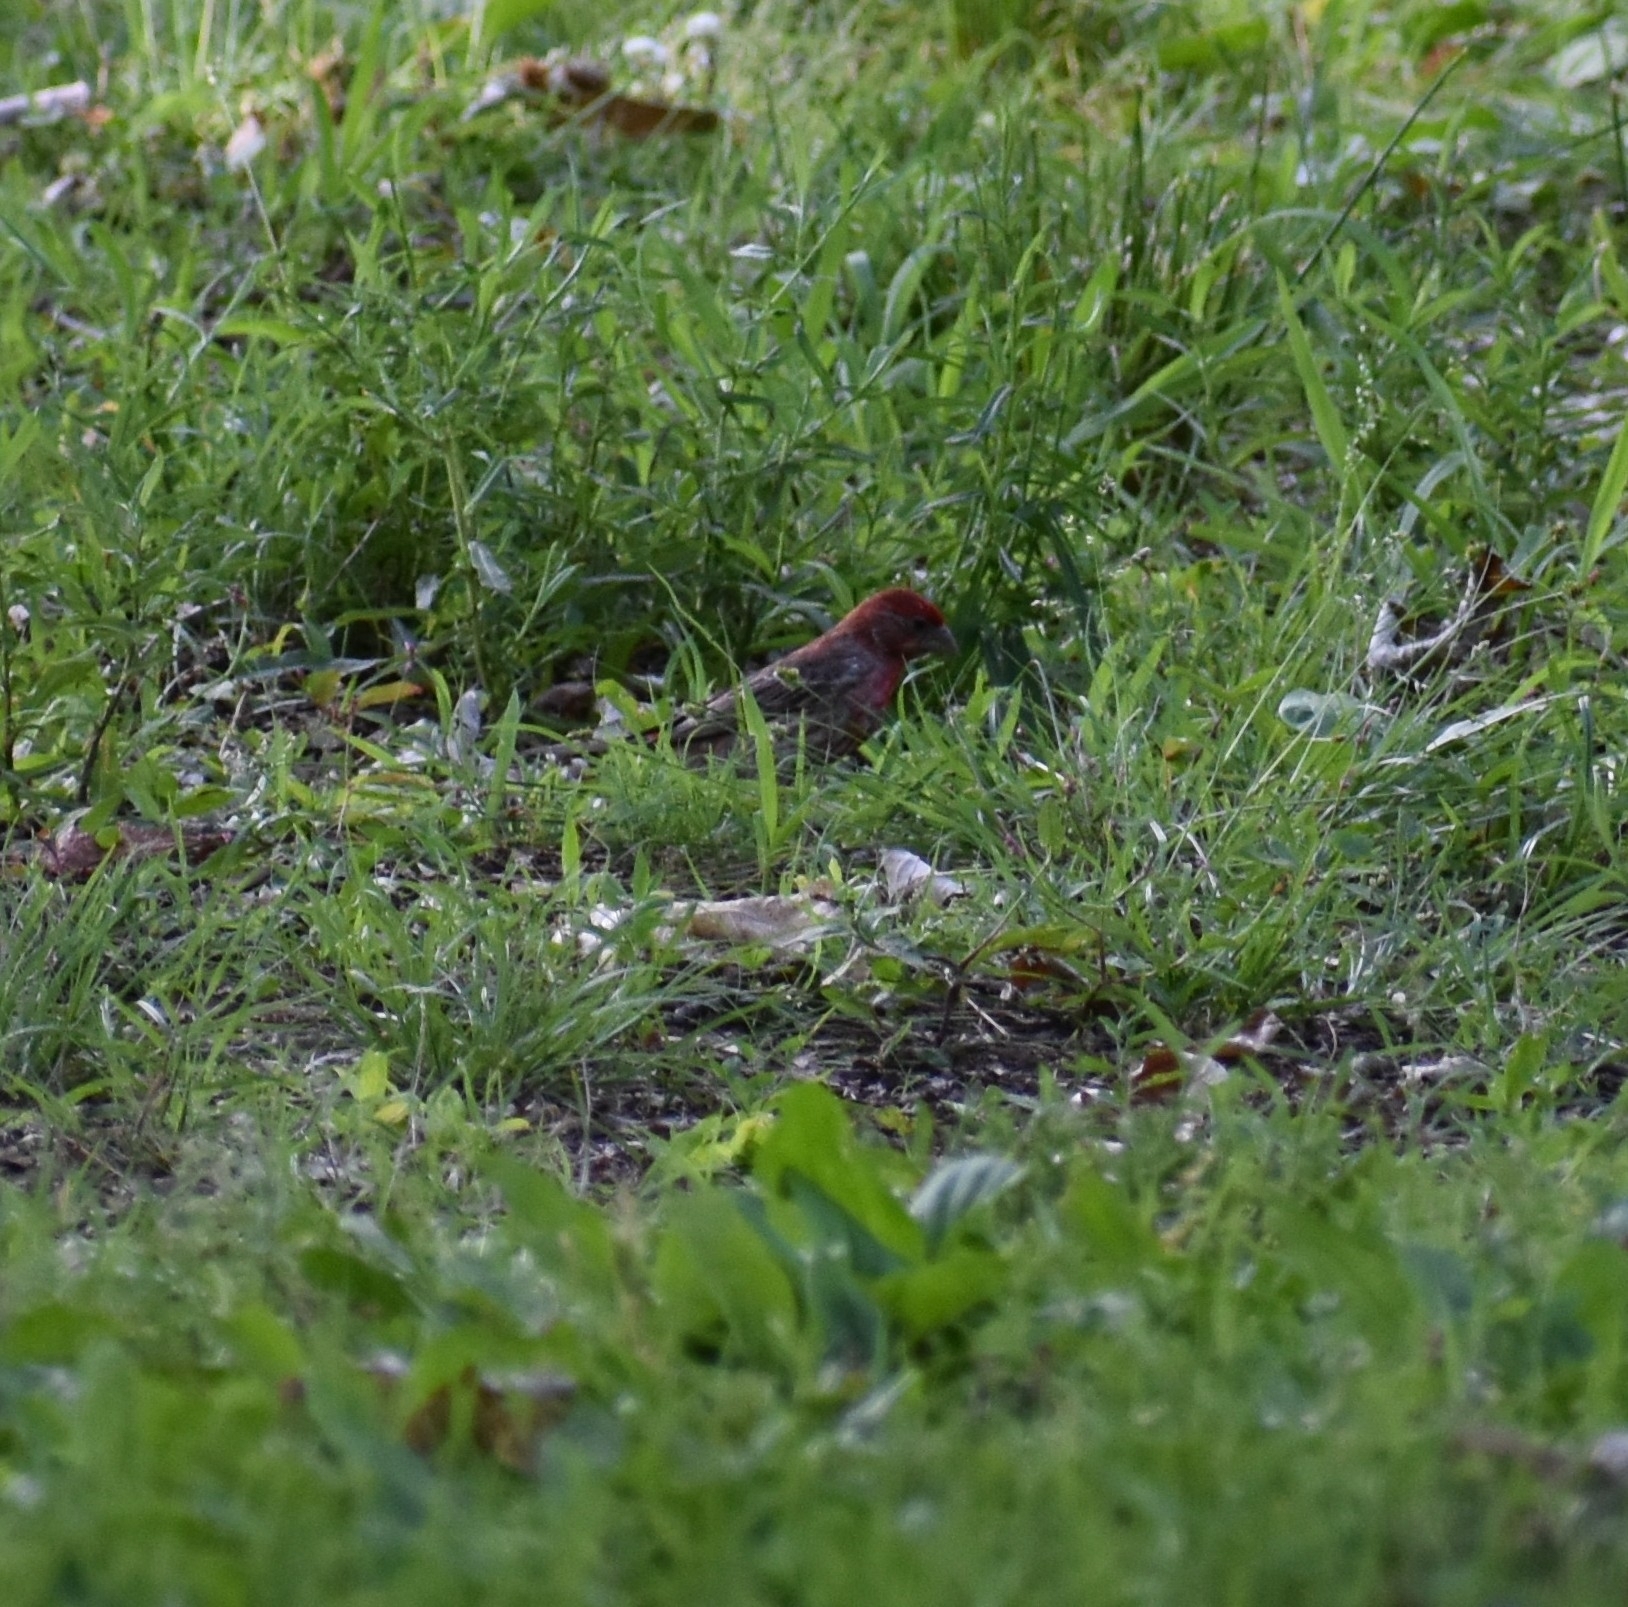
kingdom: Animalia
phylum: Chordata
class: Aves
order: Passeriformes
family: Fringillidae
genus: Haemorhous
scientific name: Haemorhous mexicanus
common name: House finch
